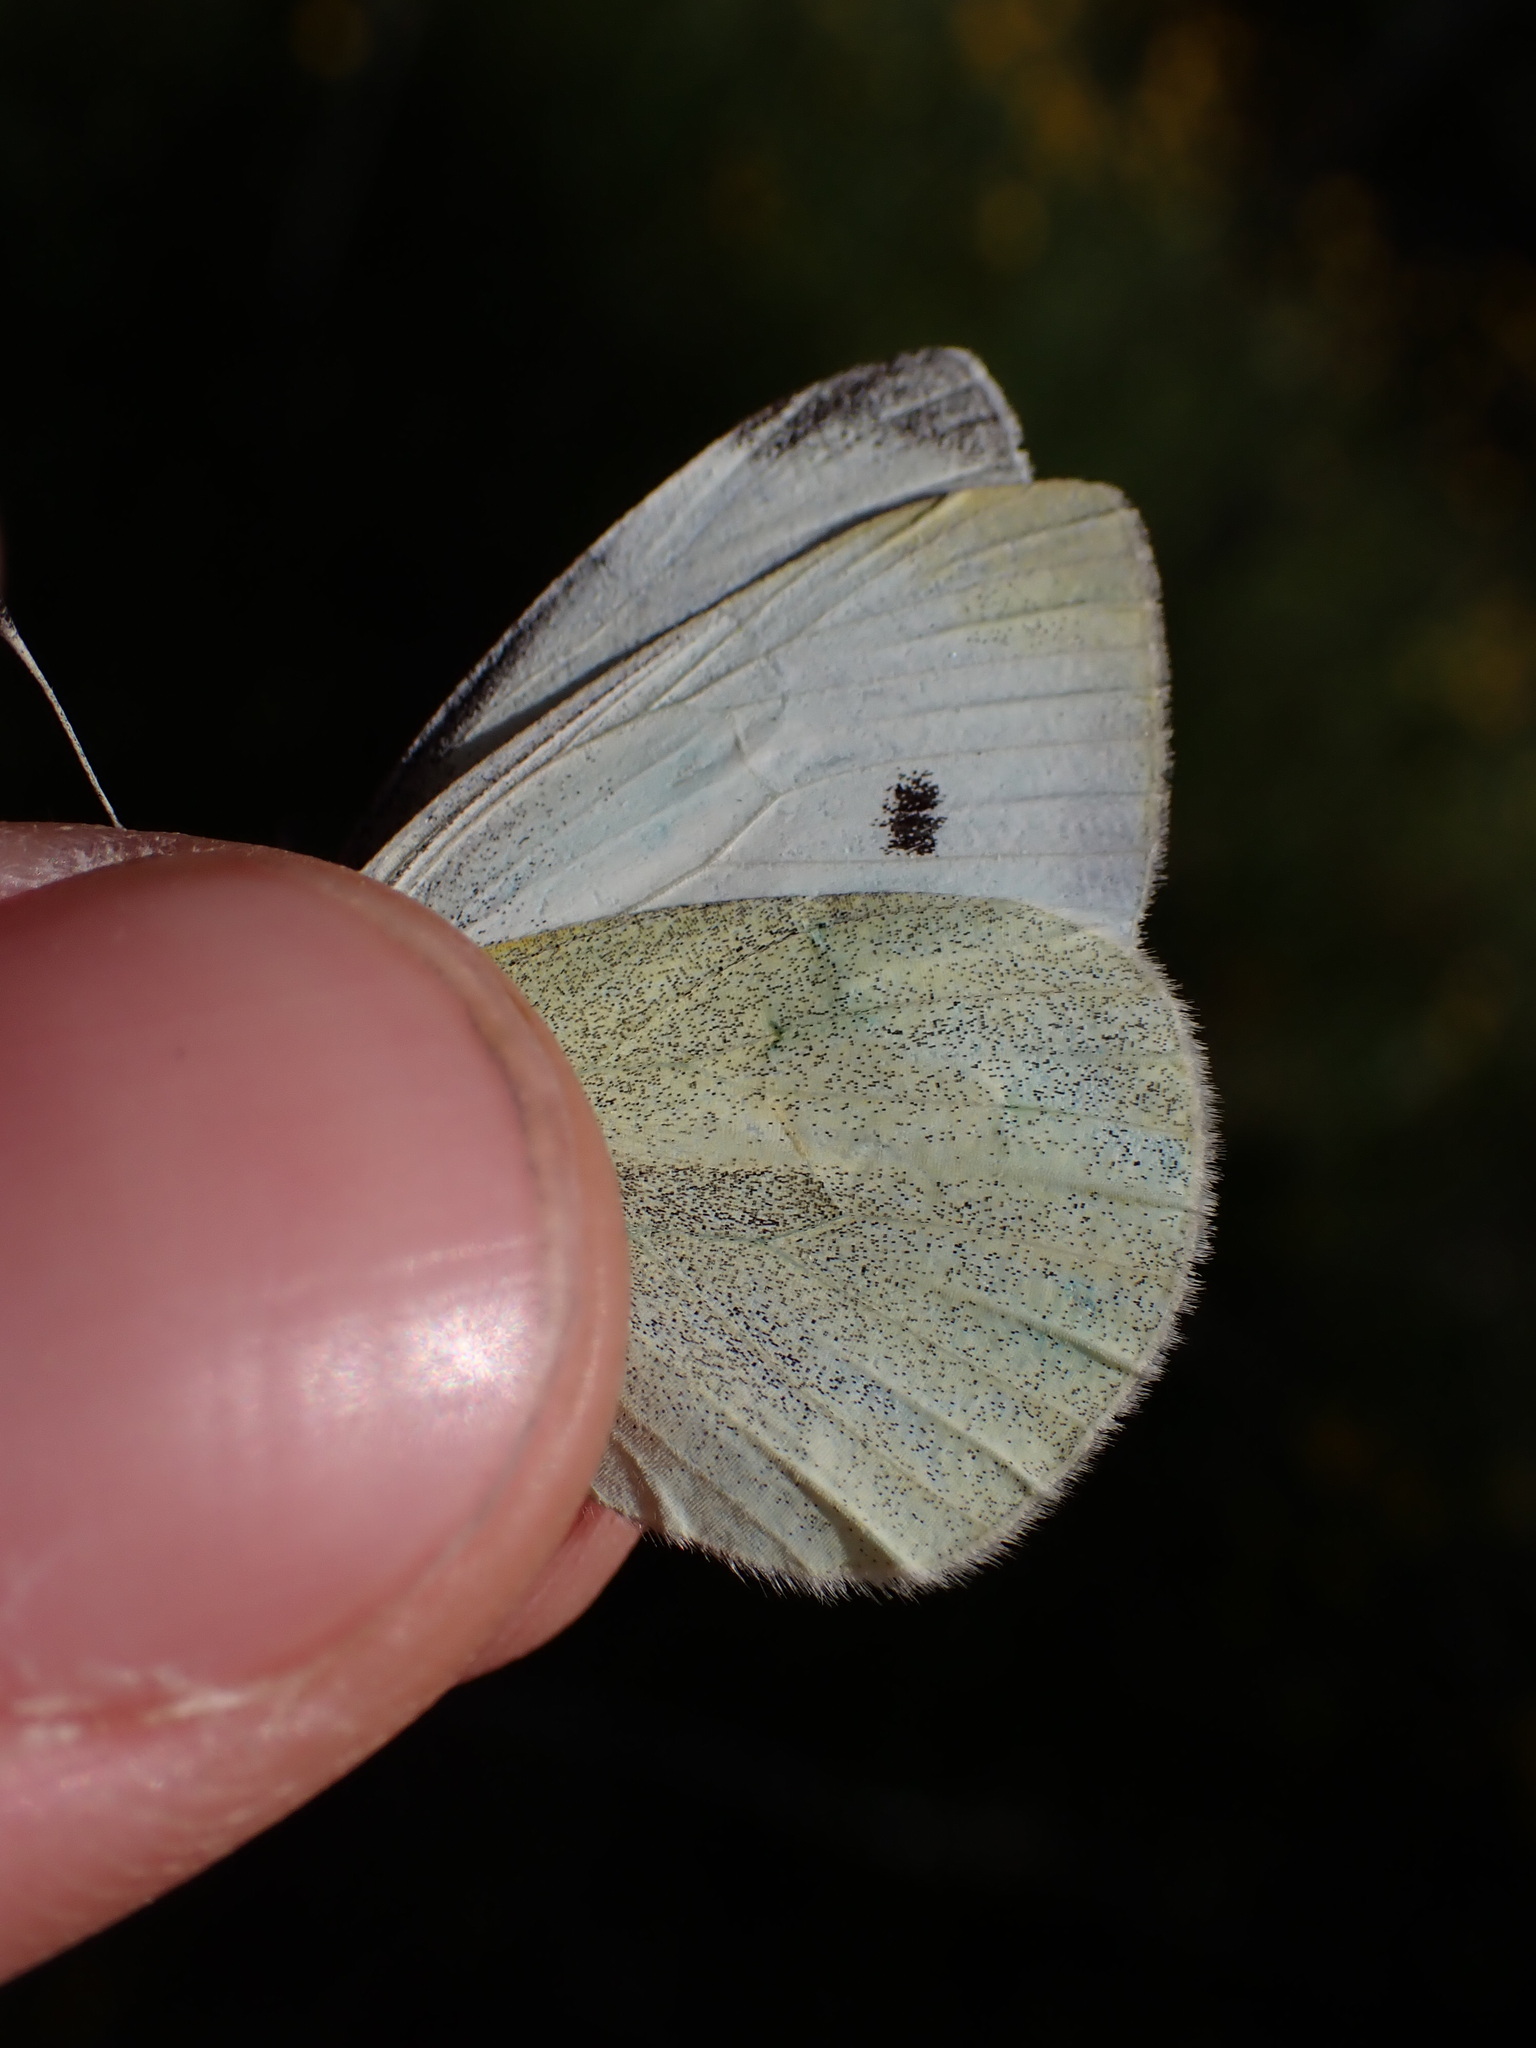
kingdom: Animalia
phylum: Arthropoda
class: Insecta
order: Lepidoptera
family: Pieridae
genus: Pieris
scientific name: Pieris rapae
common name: Small white
